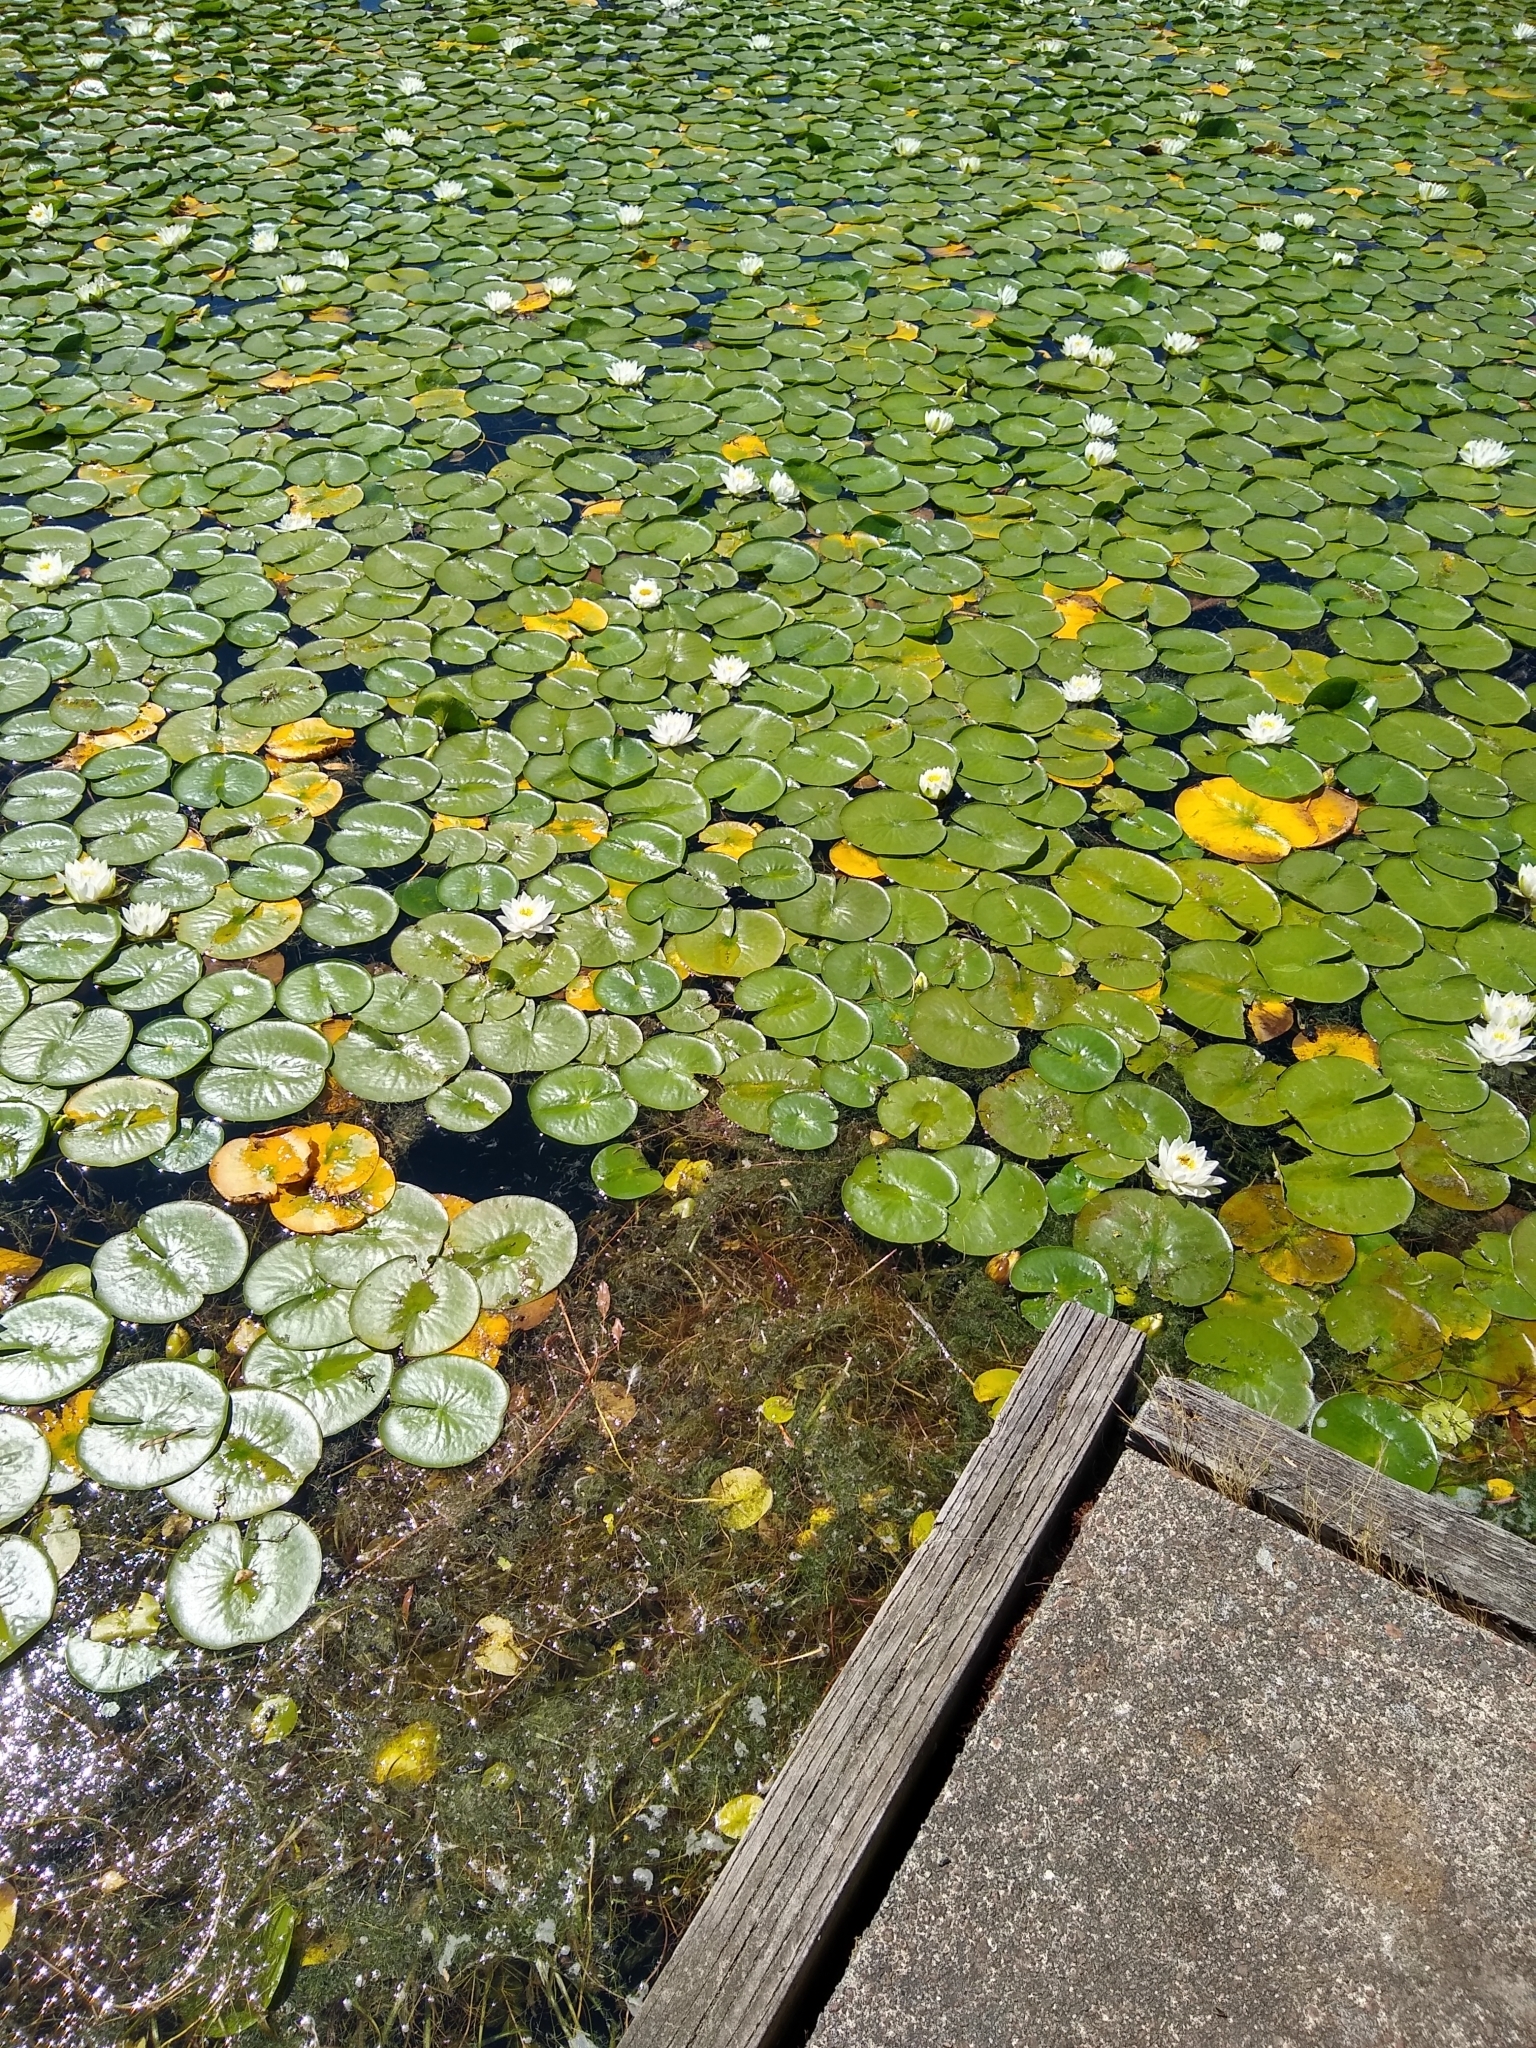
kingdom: Plantae
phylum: Tracheophyta
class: Magnoliopsida
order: Nymphaeales
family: Nymphaeaceae
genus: Nymphaea
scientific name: Nymphaea odorata
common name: Fragrant water-lily
